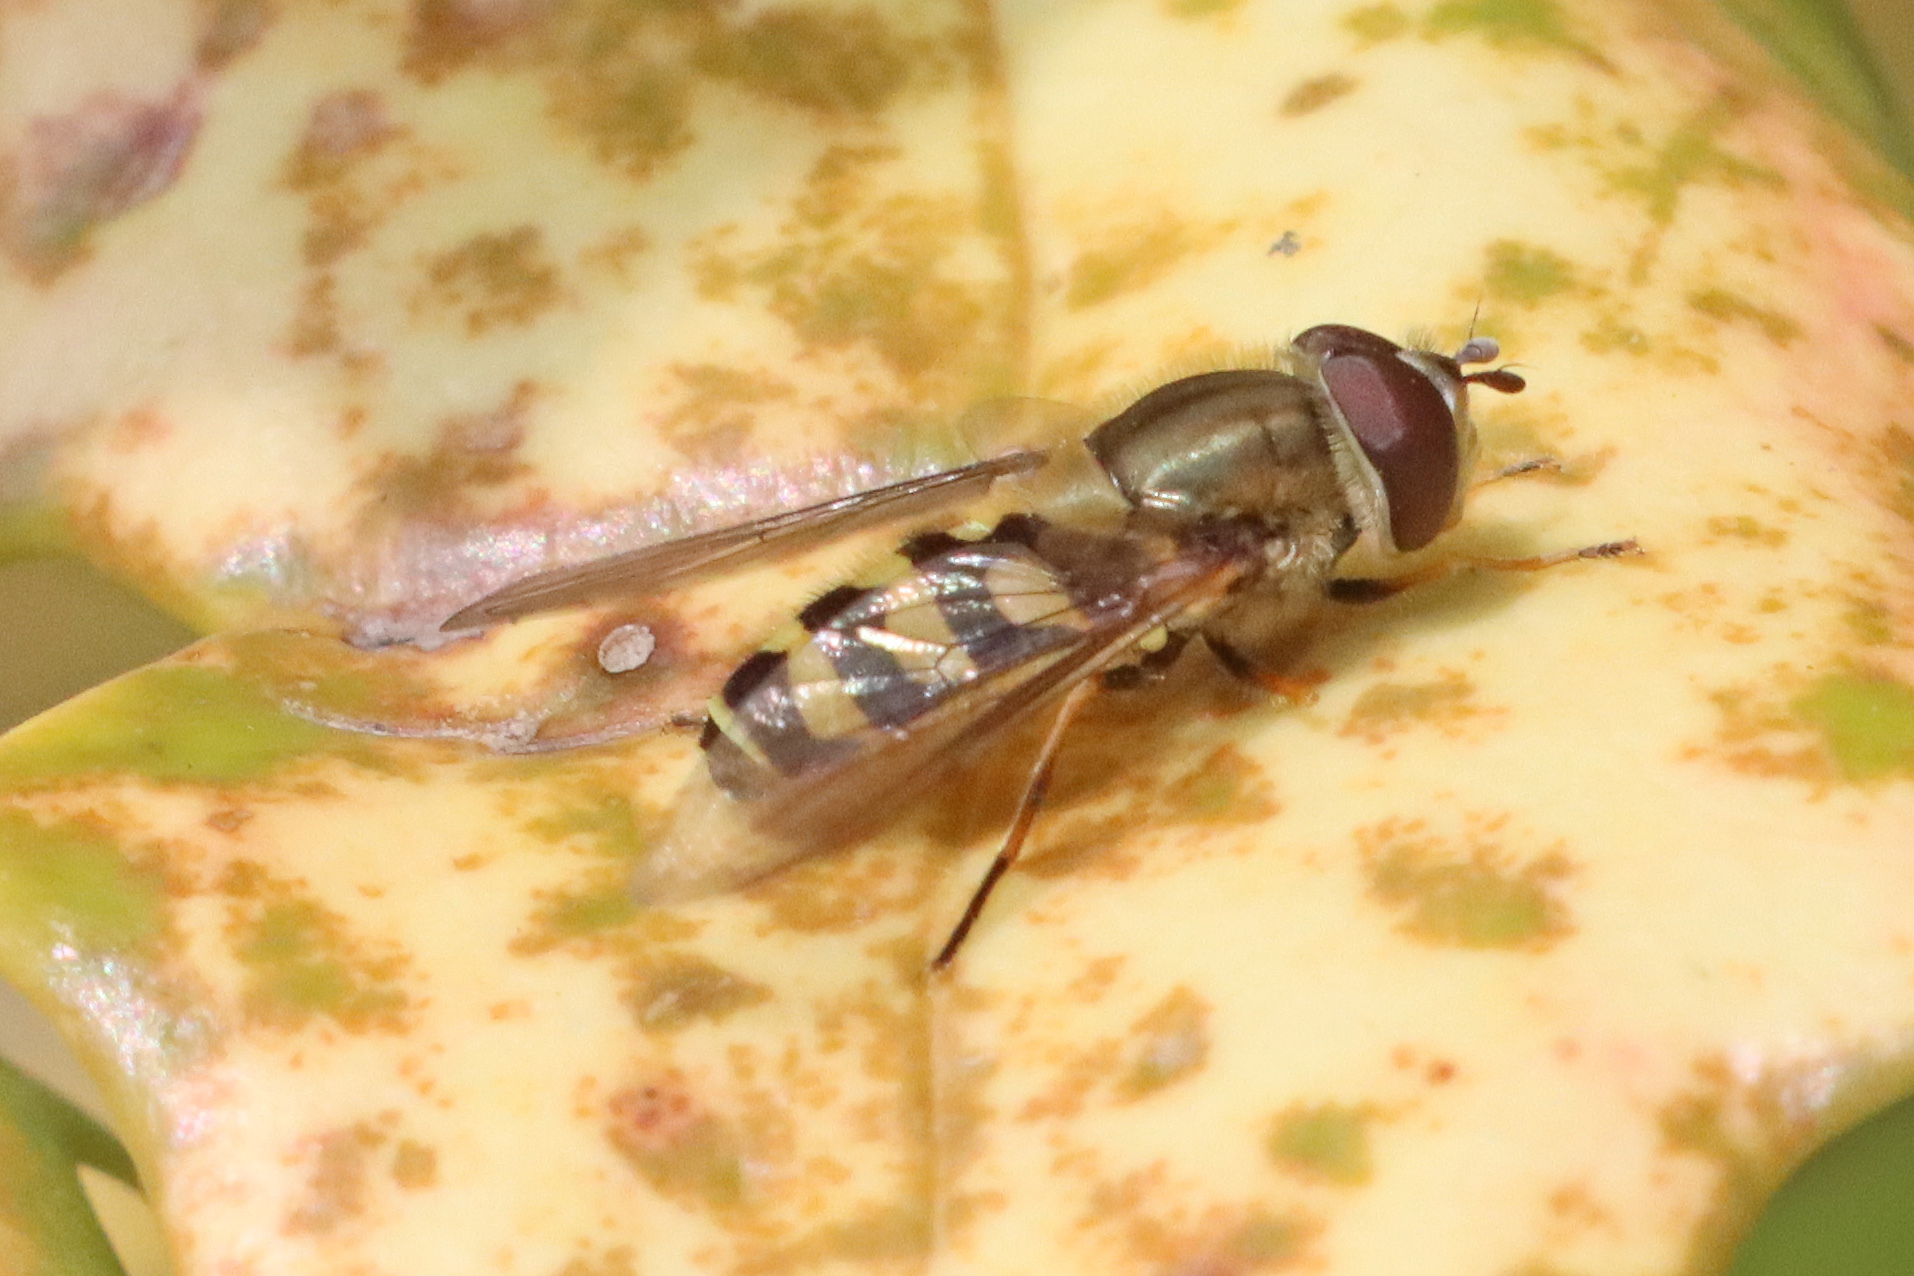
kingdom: Animalia
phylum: Arthropoda
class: Insecta
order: Diptera
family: Syrphidae
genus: Syrphus
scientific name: Syrphus
